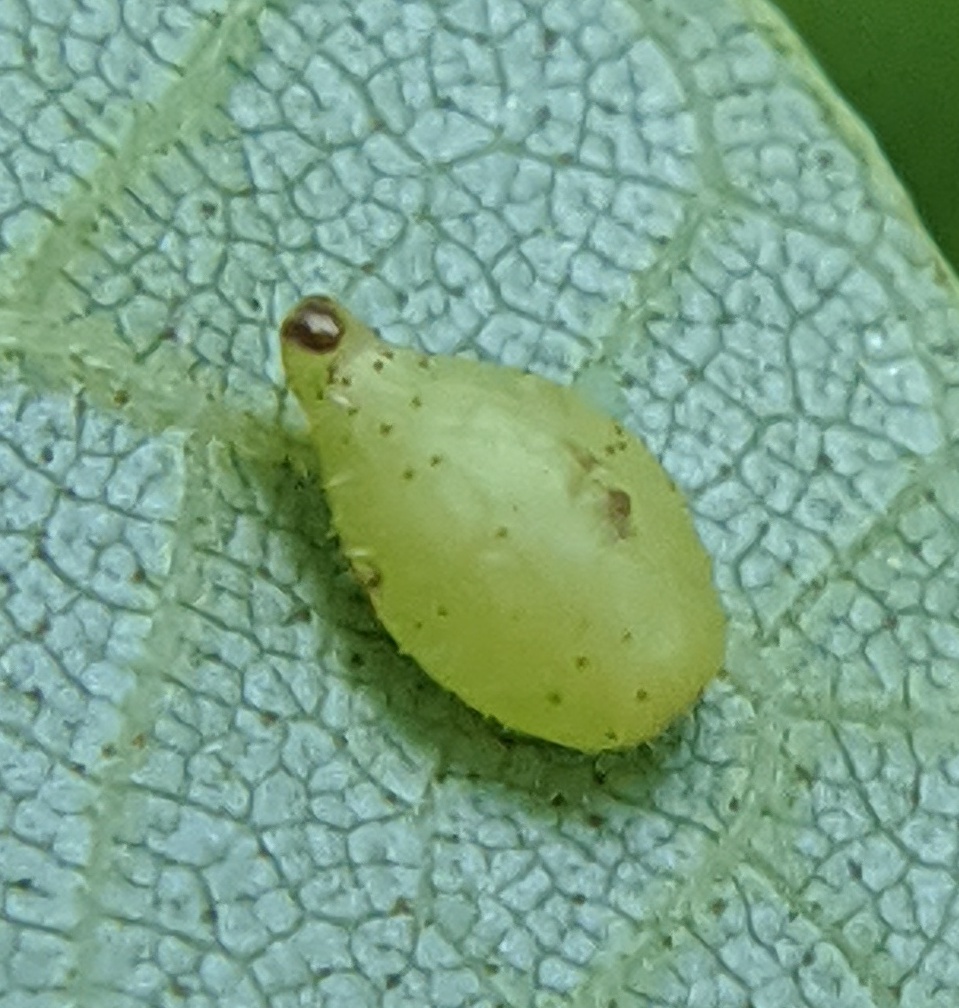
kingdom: Animalia
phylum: Arthropoda
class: Insecta
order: Diptera
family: Cecidomyiidae
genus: Caryomyia
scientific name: Caryomyia eumaris
